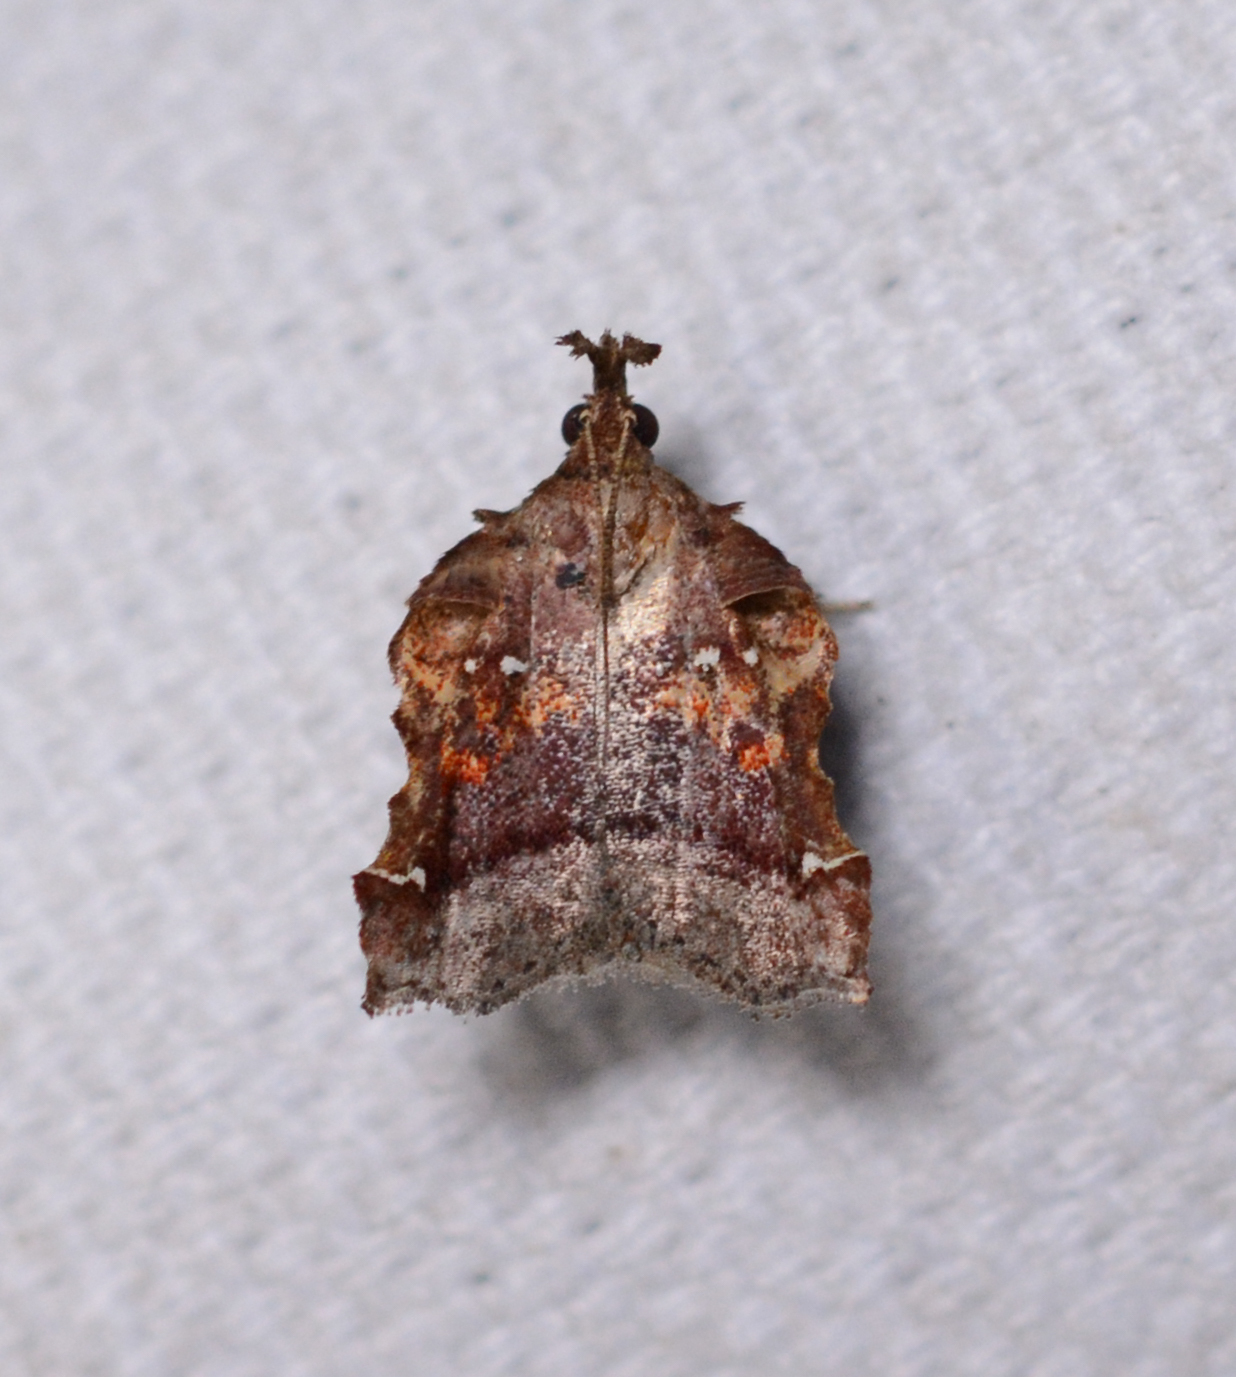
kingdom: Animalia
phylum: Arthropoda
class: Insecta
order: Lepidoptera
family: Pyralidae
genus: Clydonopteron
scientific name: Clydonopteron sacculana
